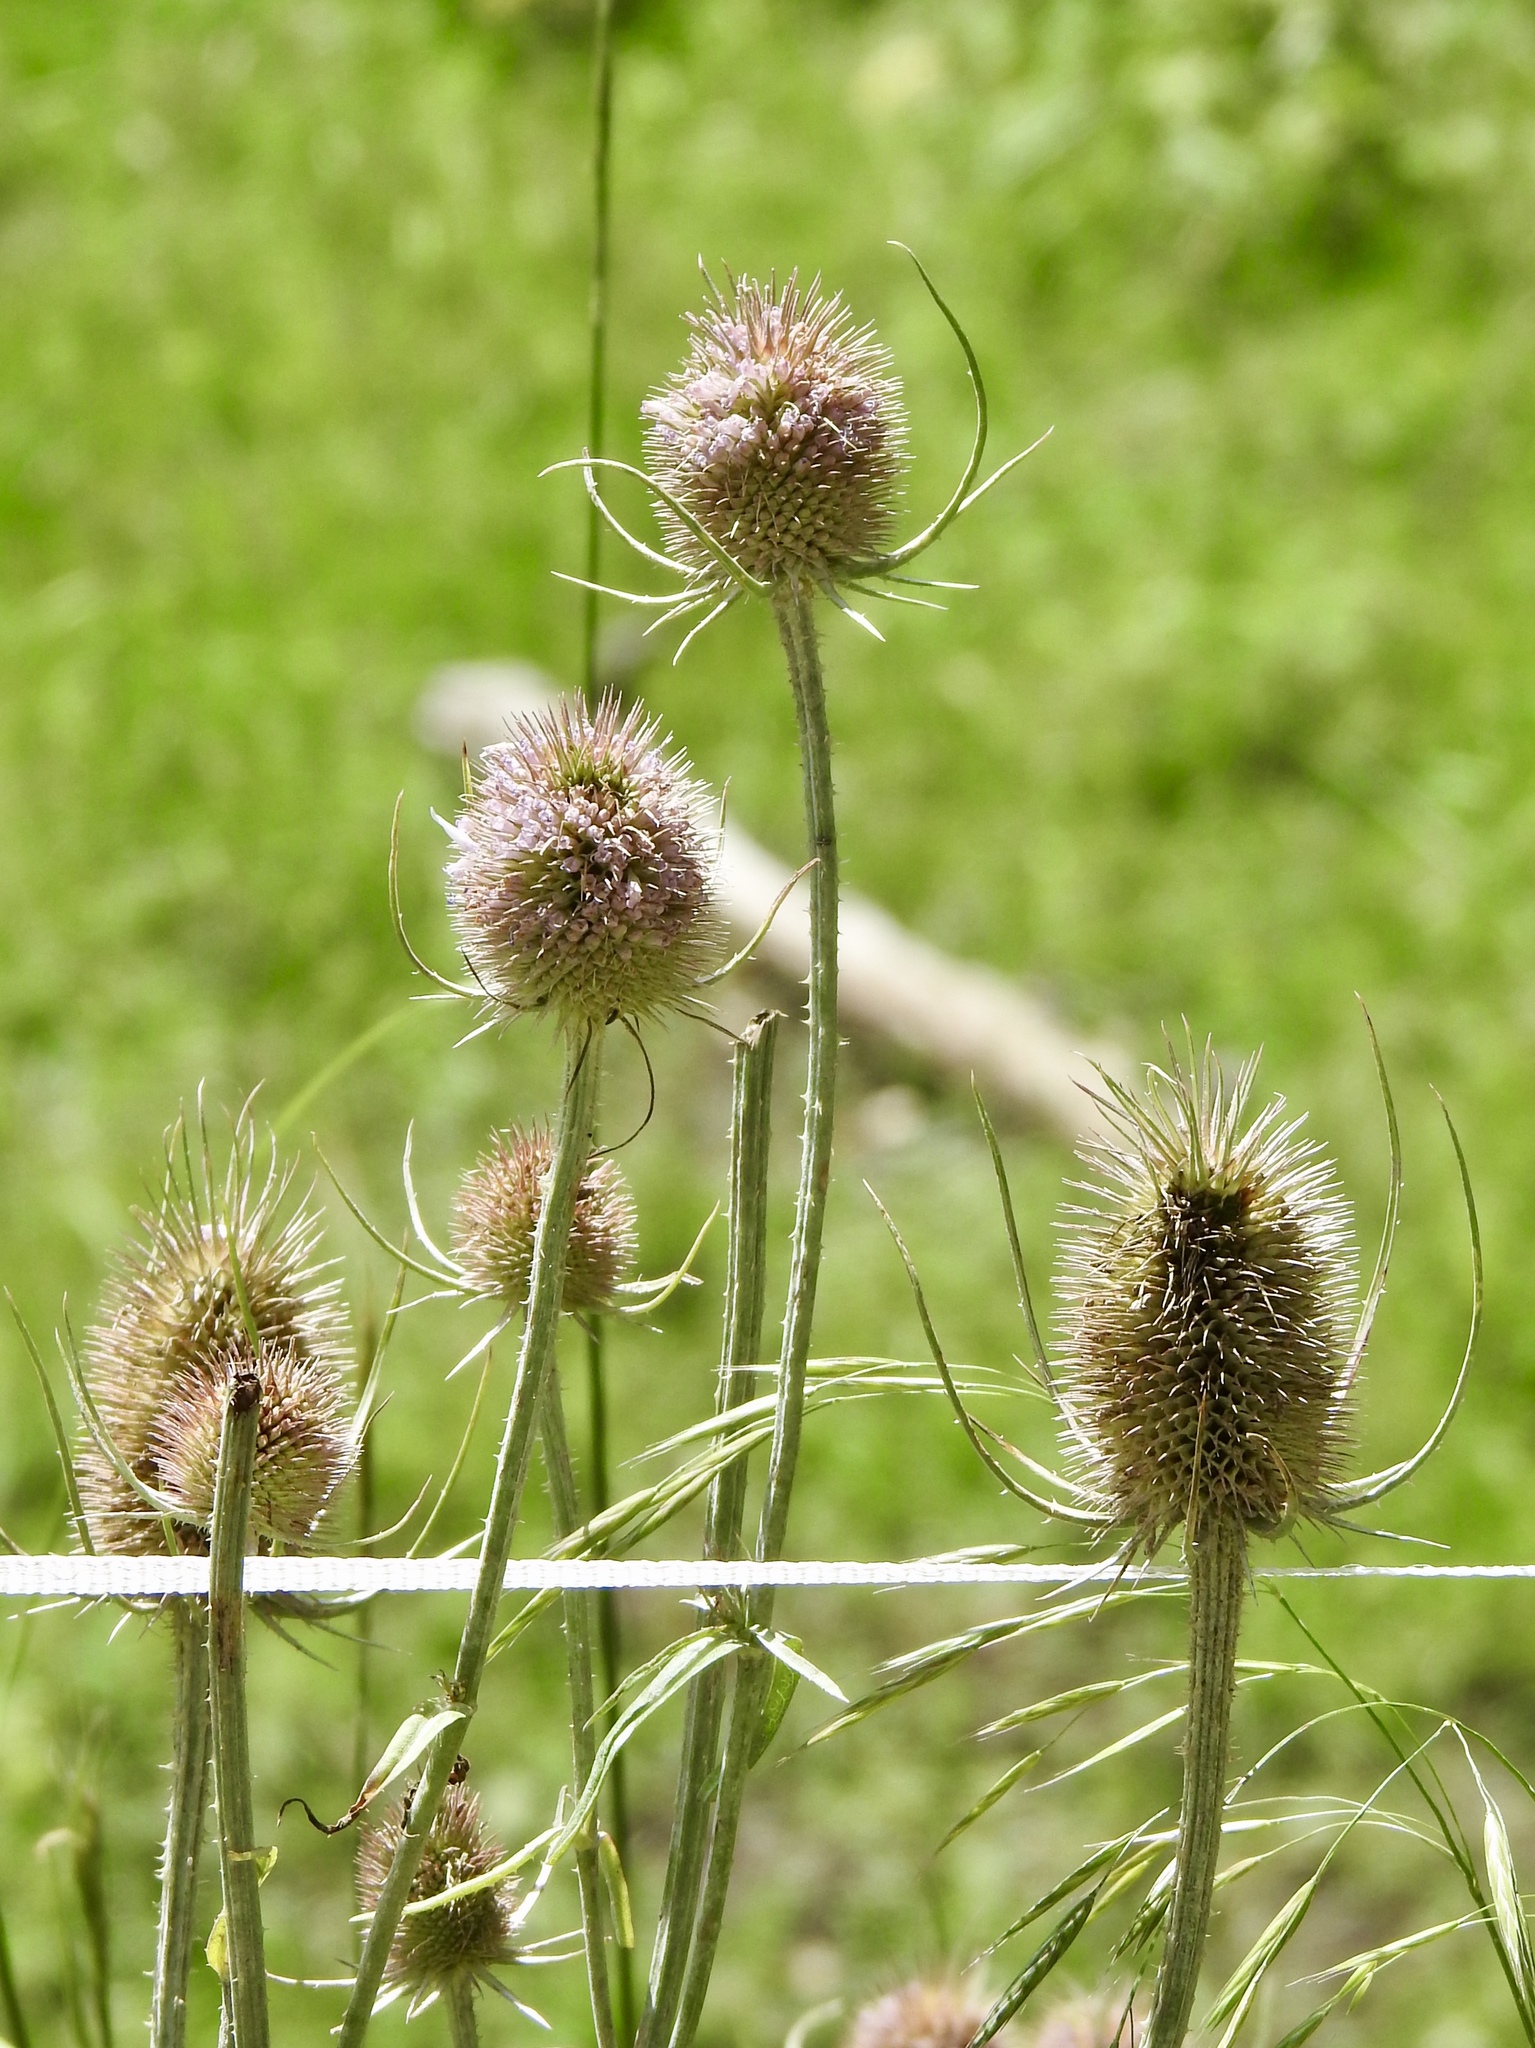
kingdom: Plantae
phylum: Tracheophyta
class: Magnoliopsida
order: Dipsacales
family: Caprifoliaceae
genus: Dipsacus
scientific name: Dipsacus fullonum
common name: Teasel
